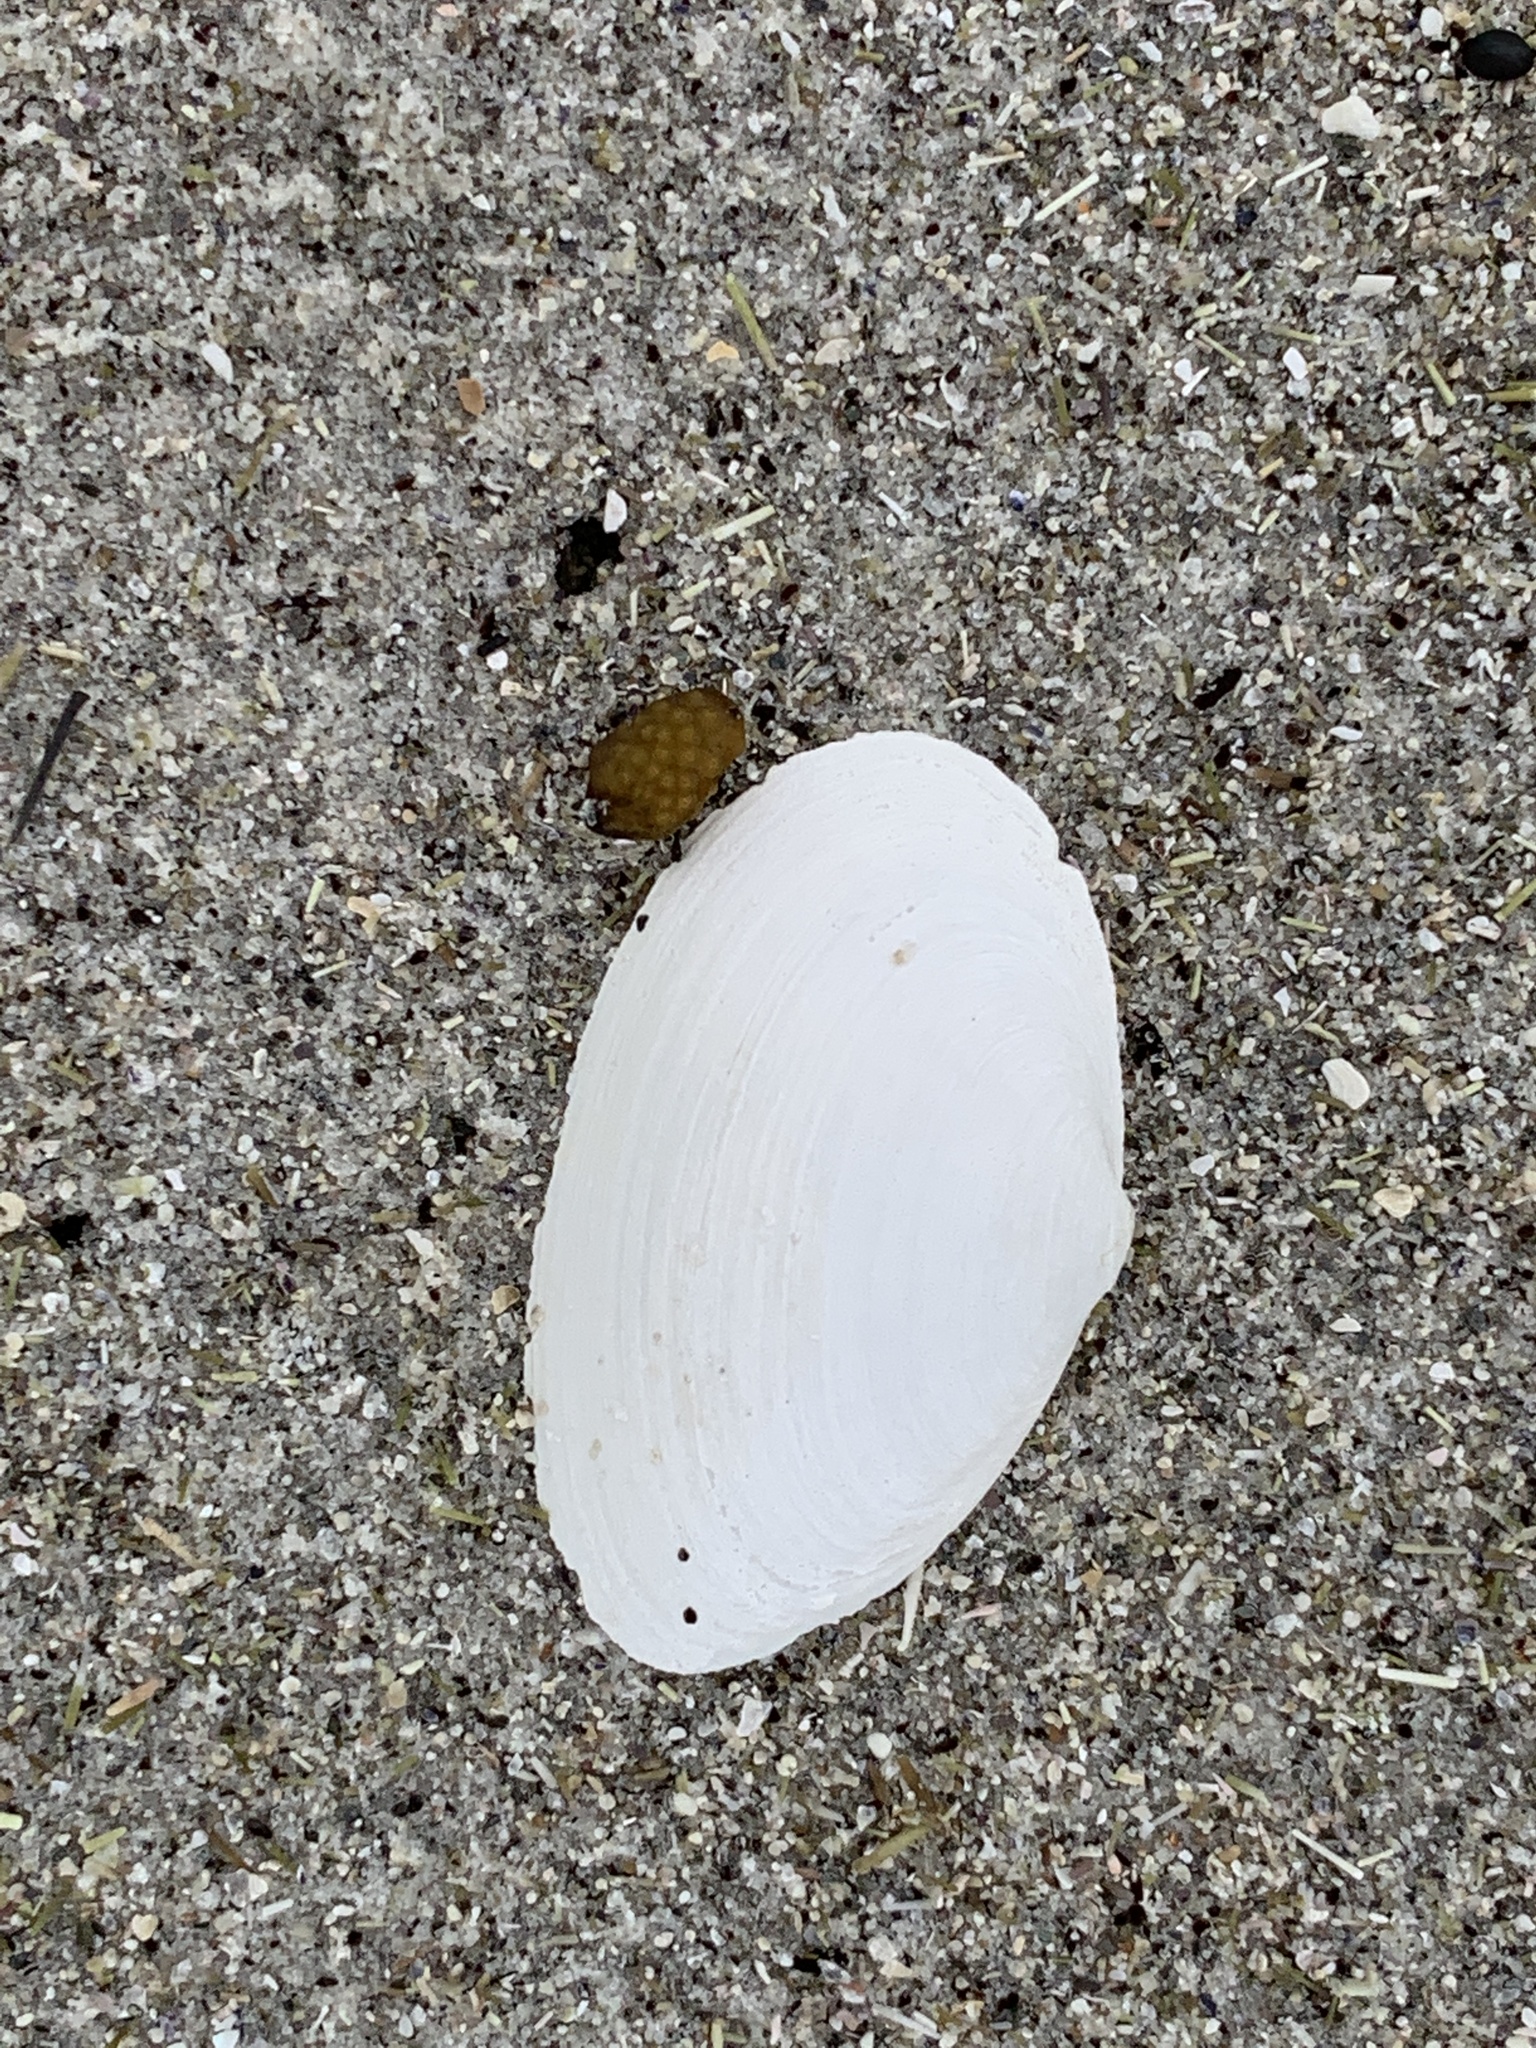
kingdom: Animalia
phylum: Mollusca
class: Bivalvia
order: Myida
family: Myidae
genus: Mya
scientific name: Mya arenaria
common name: Soft-shelled clam
